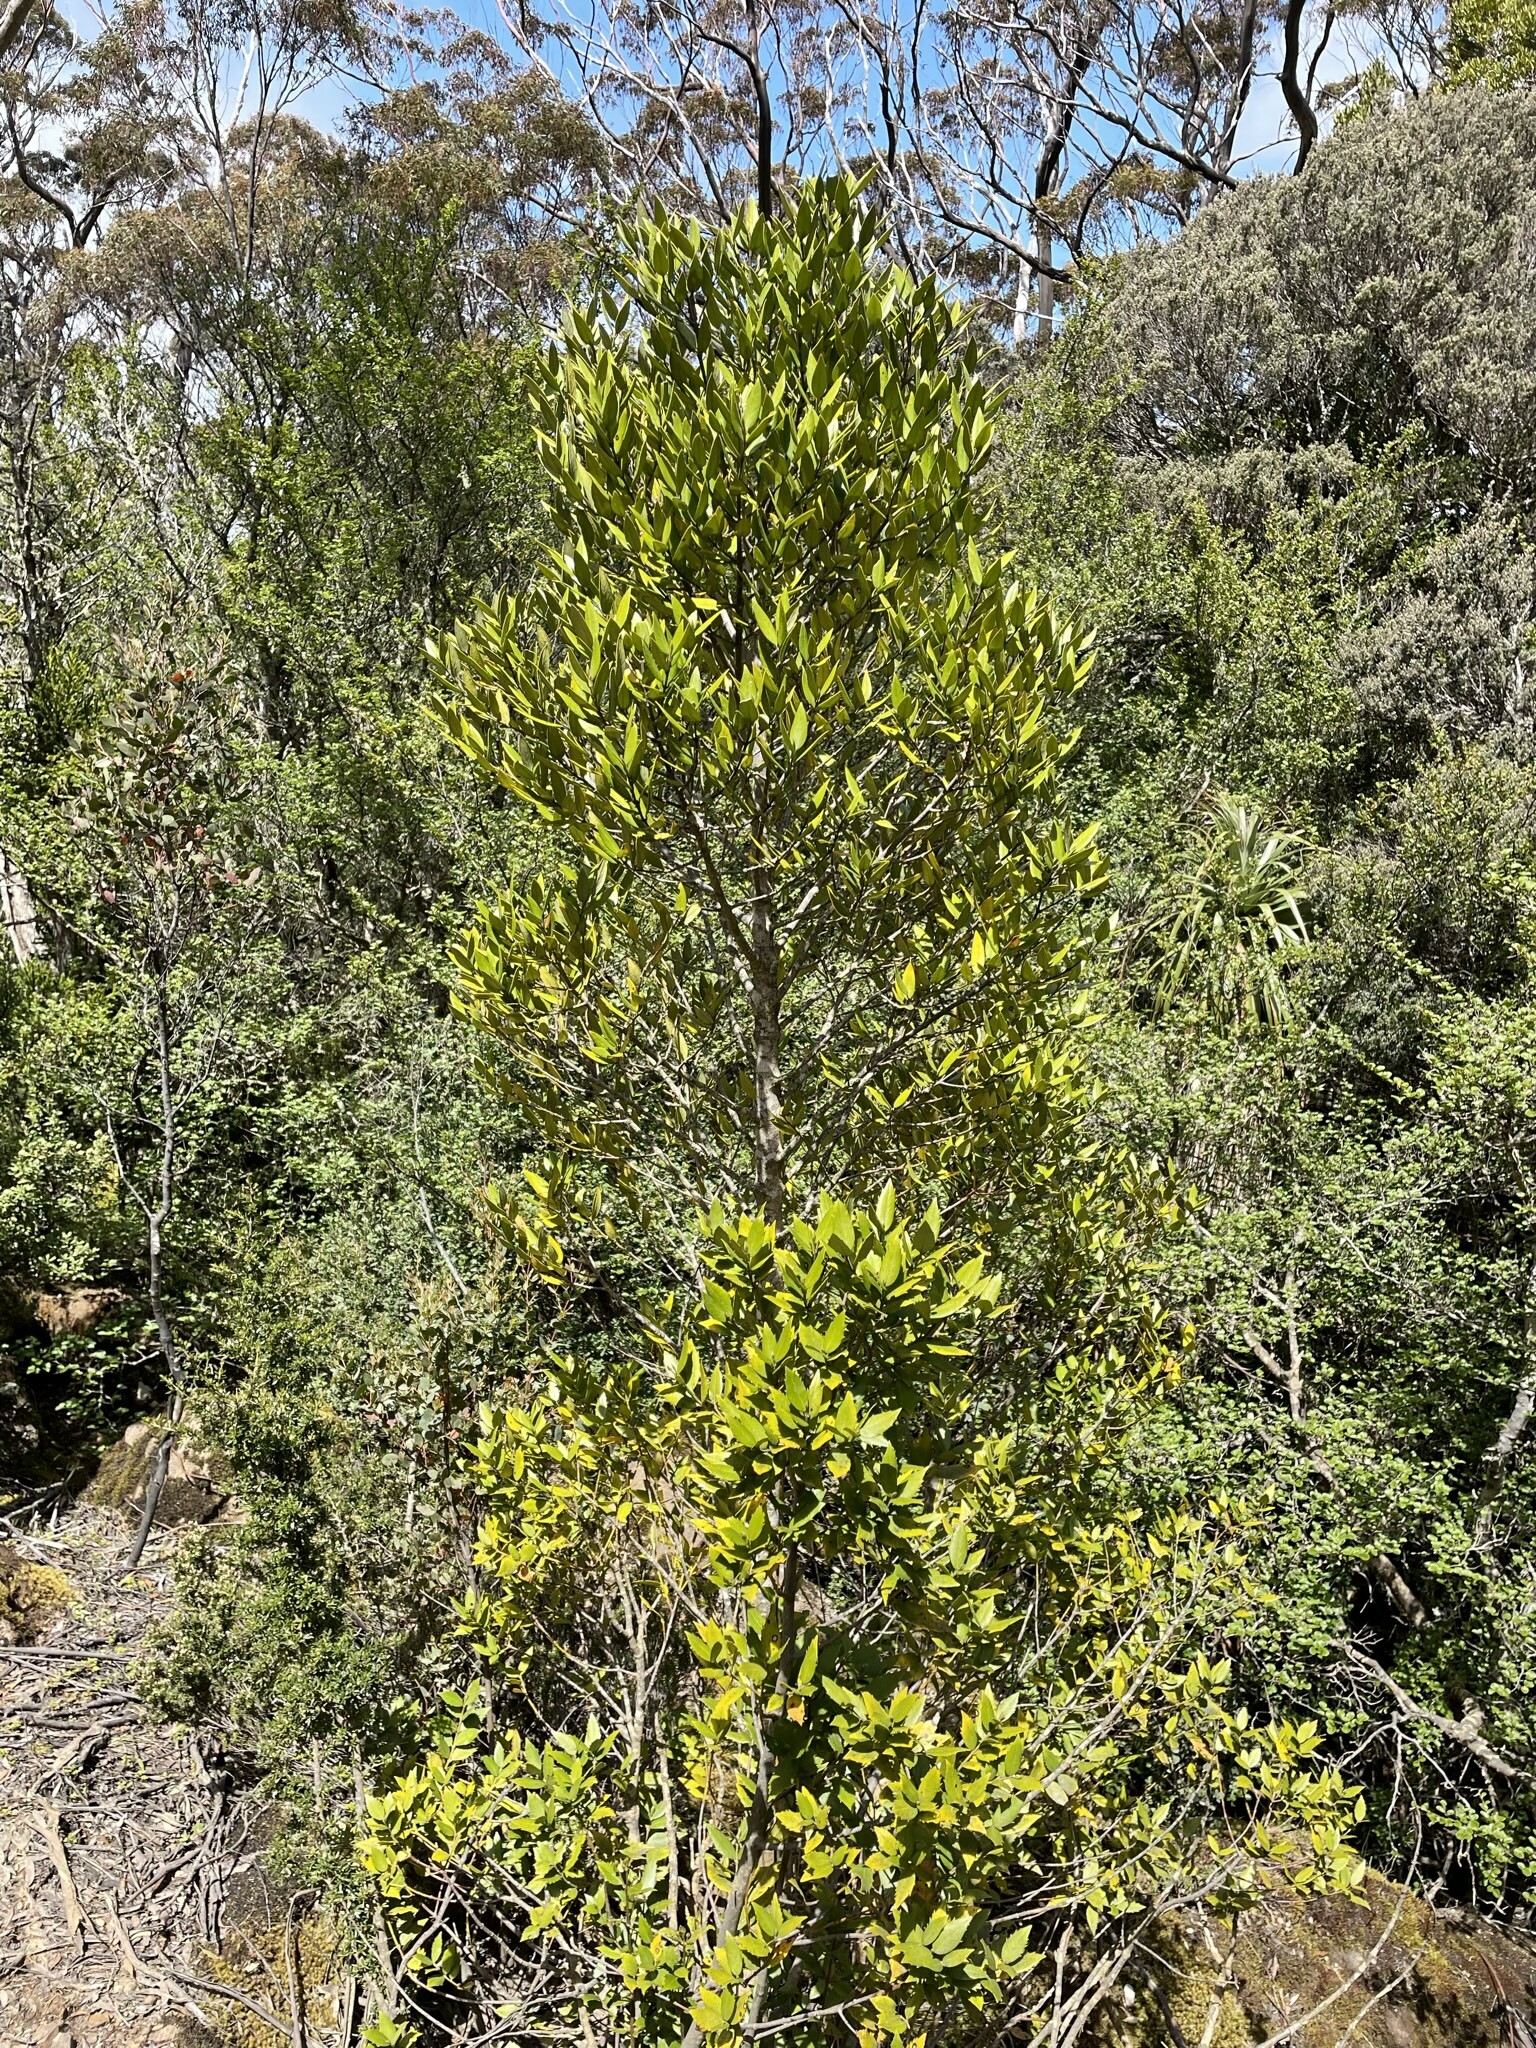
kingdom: Plantae
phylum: Tracheophyta
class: Magnoliopsida
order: Laurales
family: Atherospermataceae
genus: Atherosperma
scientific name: Atherosperma moschatum
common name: Tasmanian-sassafras
